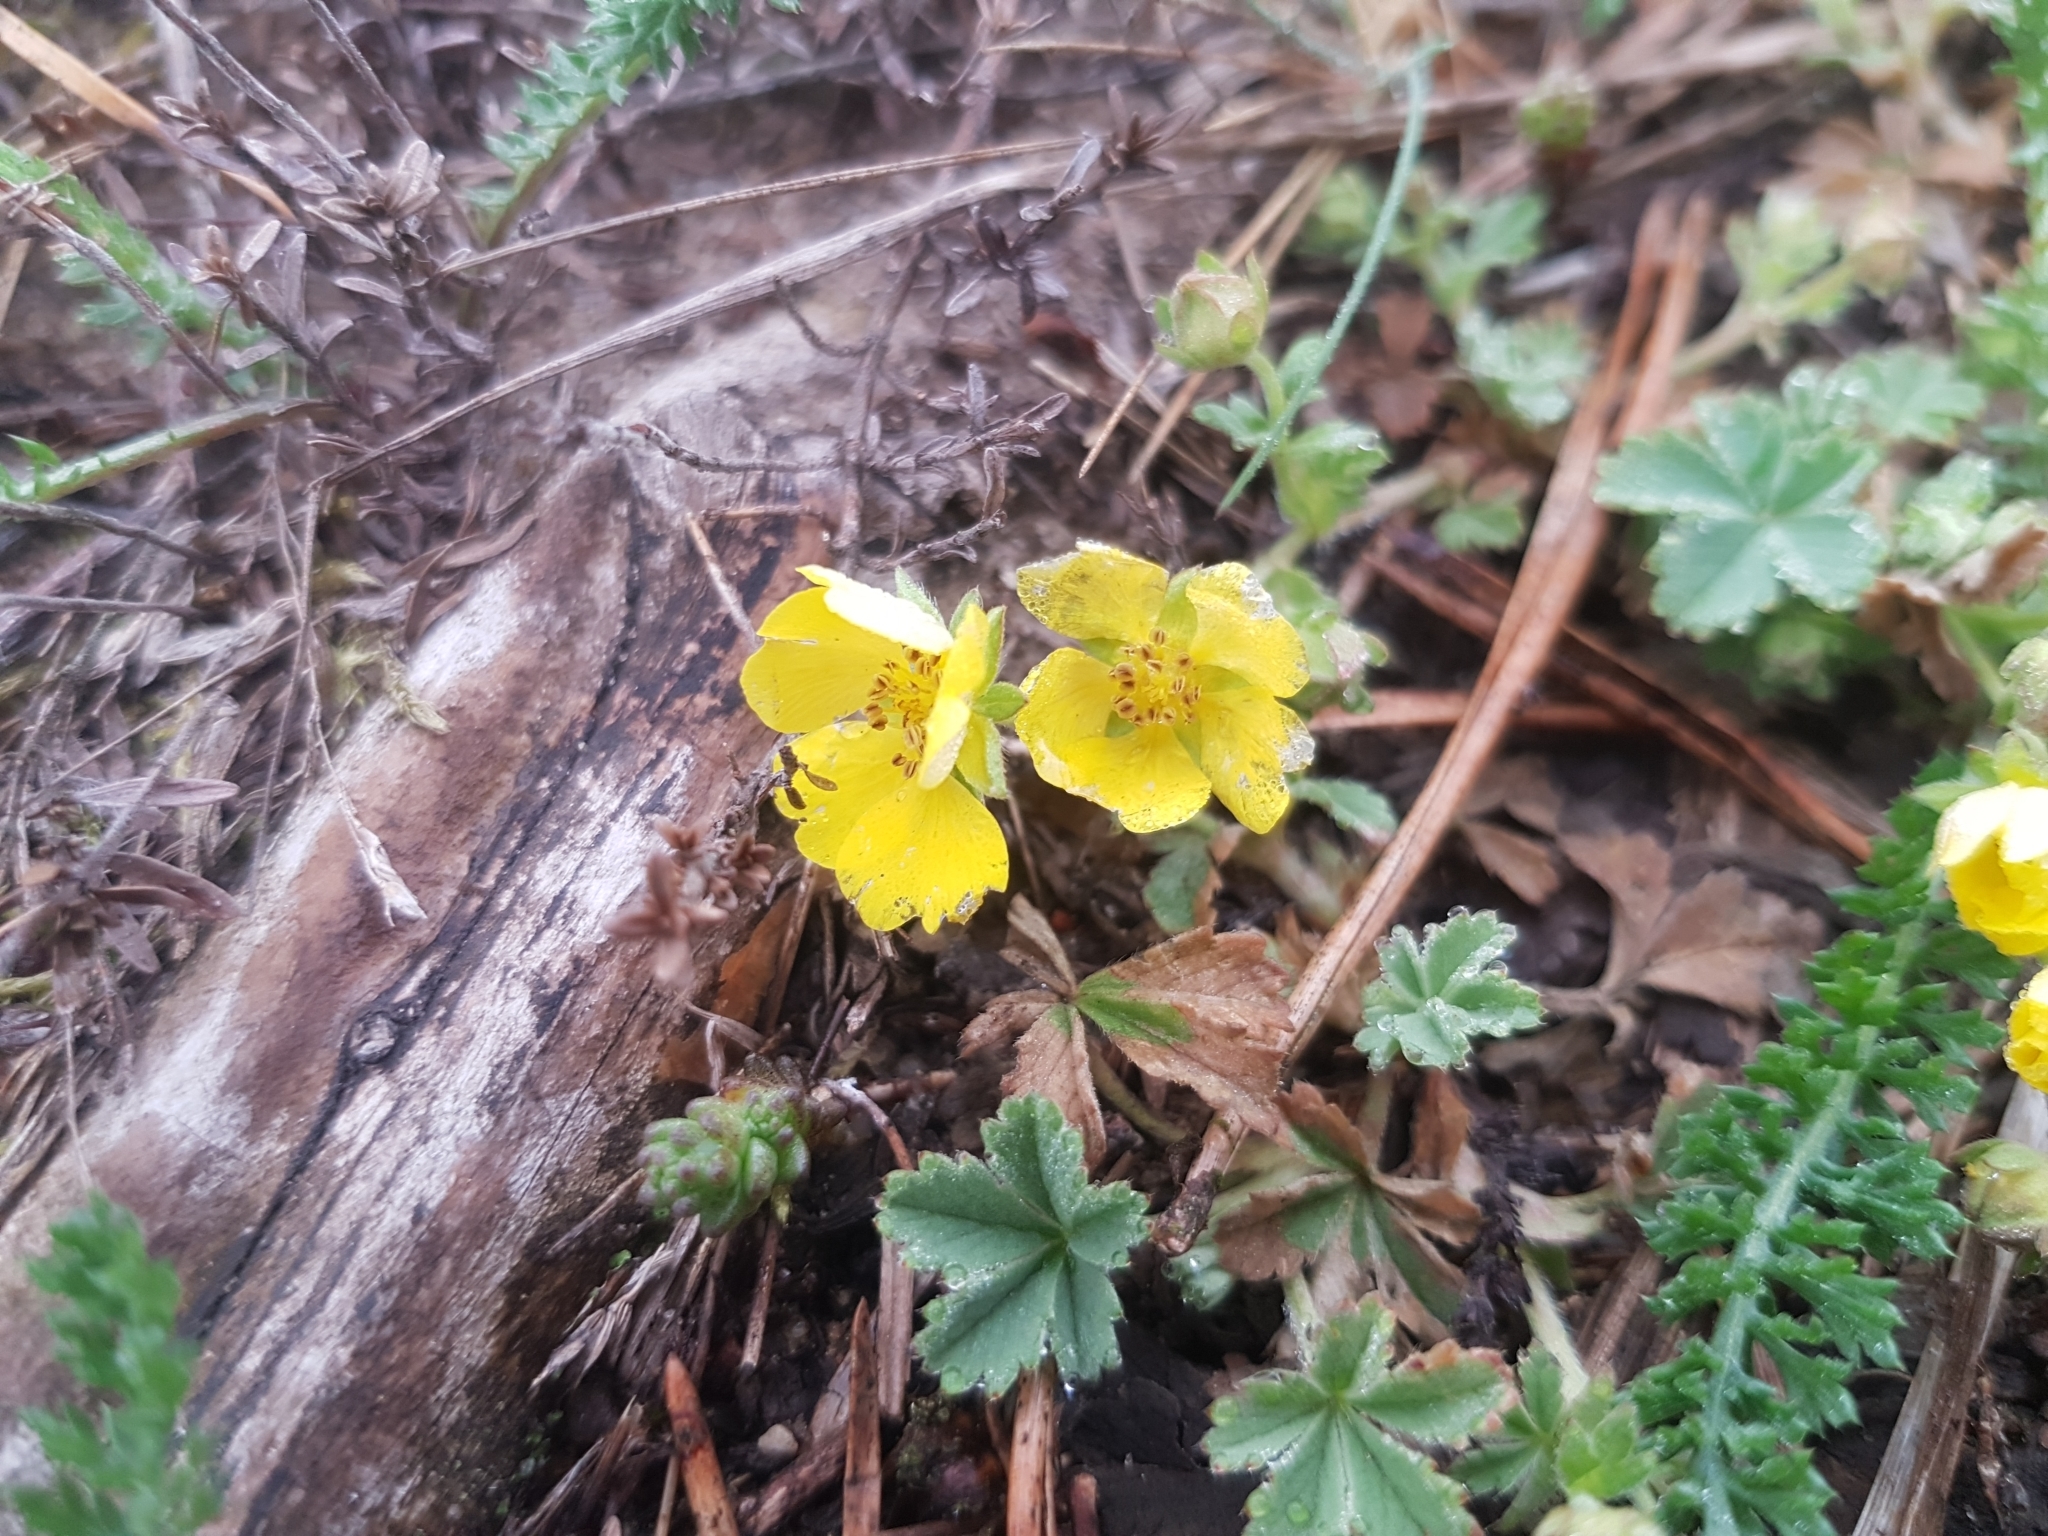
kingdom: Plantae
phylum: Tracheophyta
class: Magnoliopsida
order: Rosales
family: Rosaceae
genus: Potentilla
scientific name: Potentilla incana
